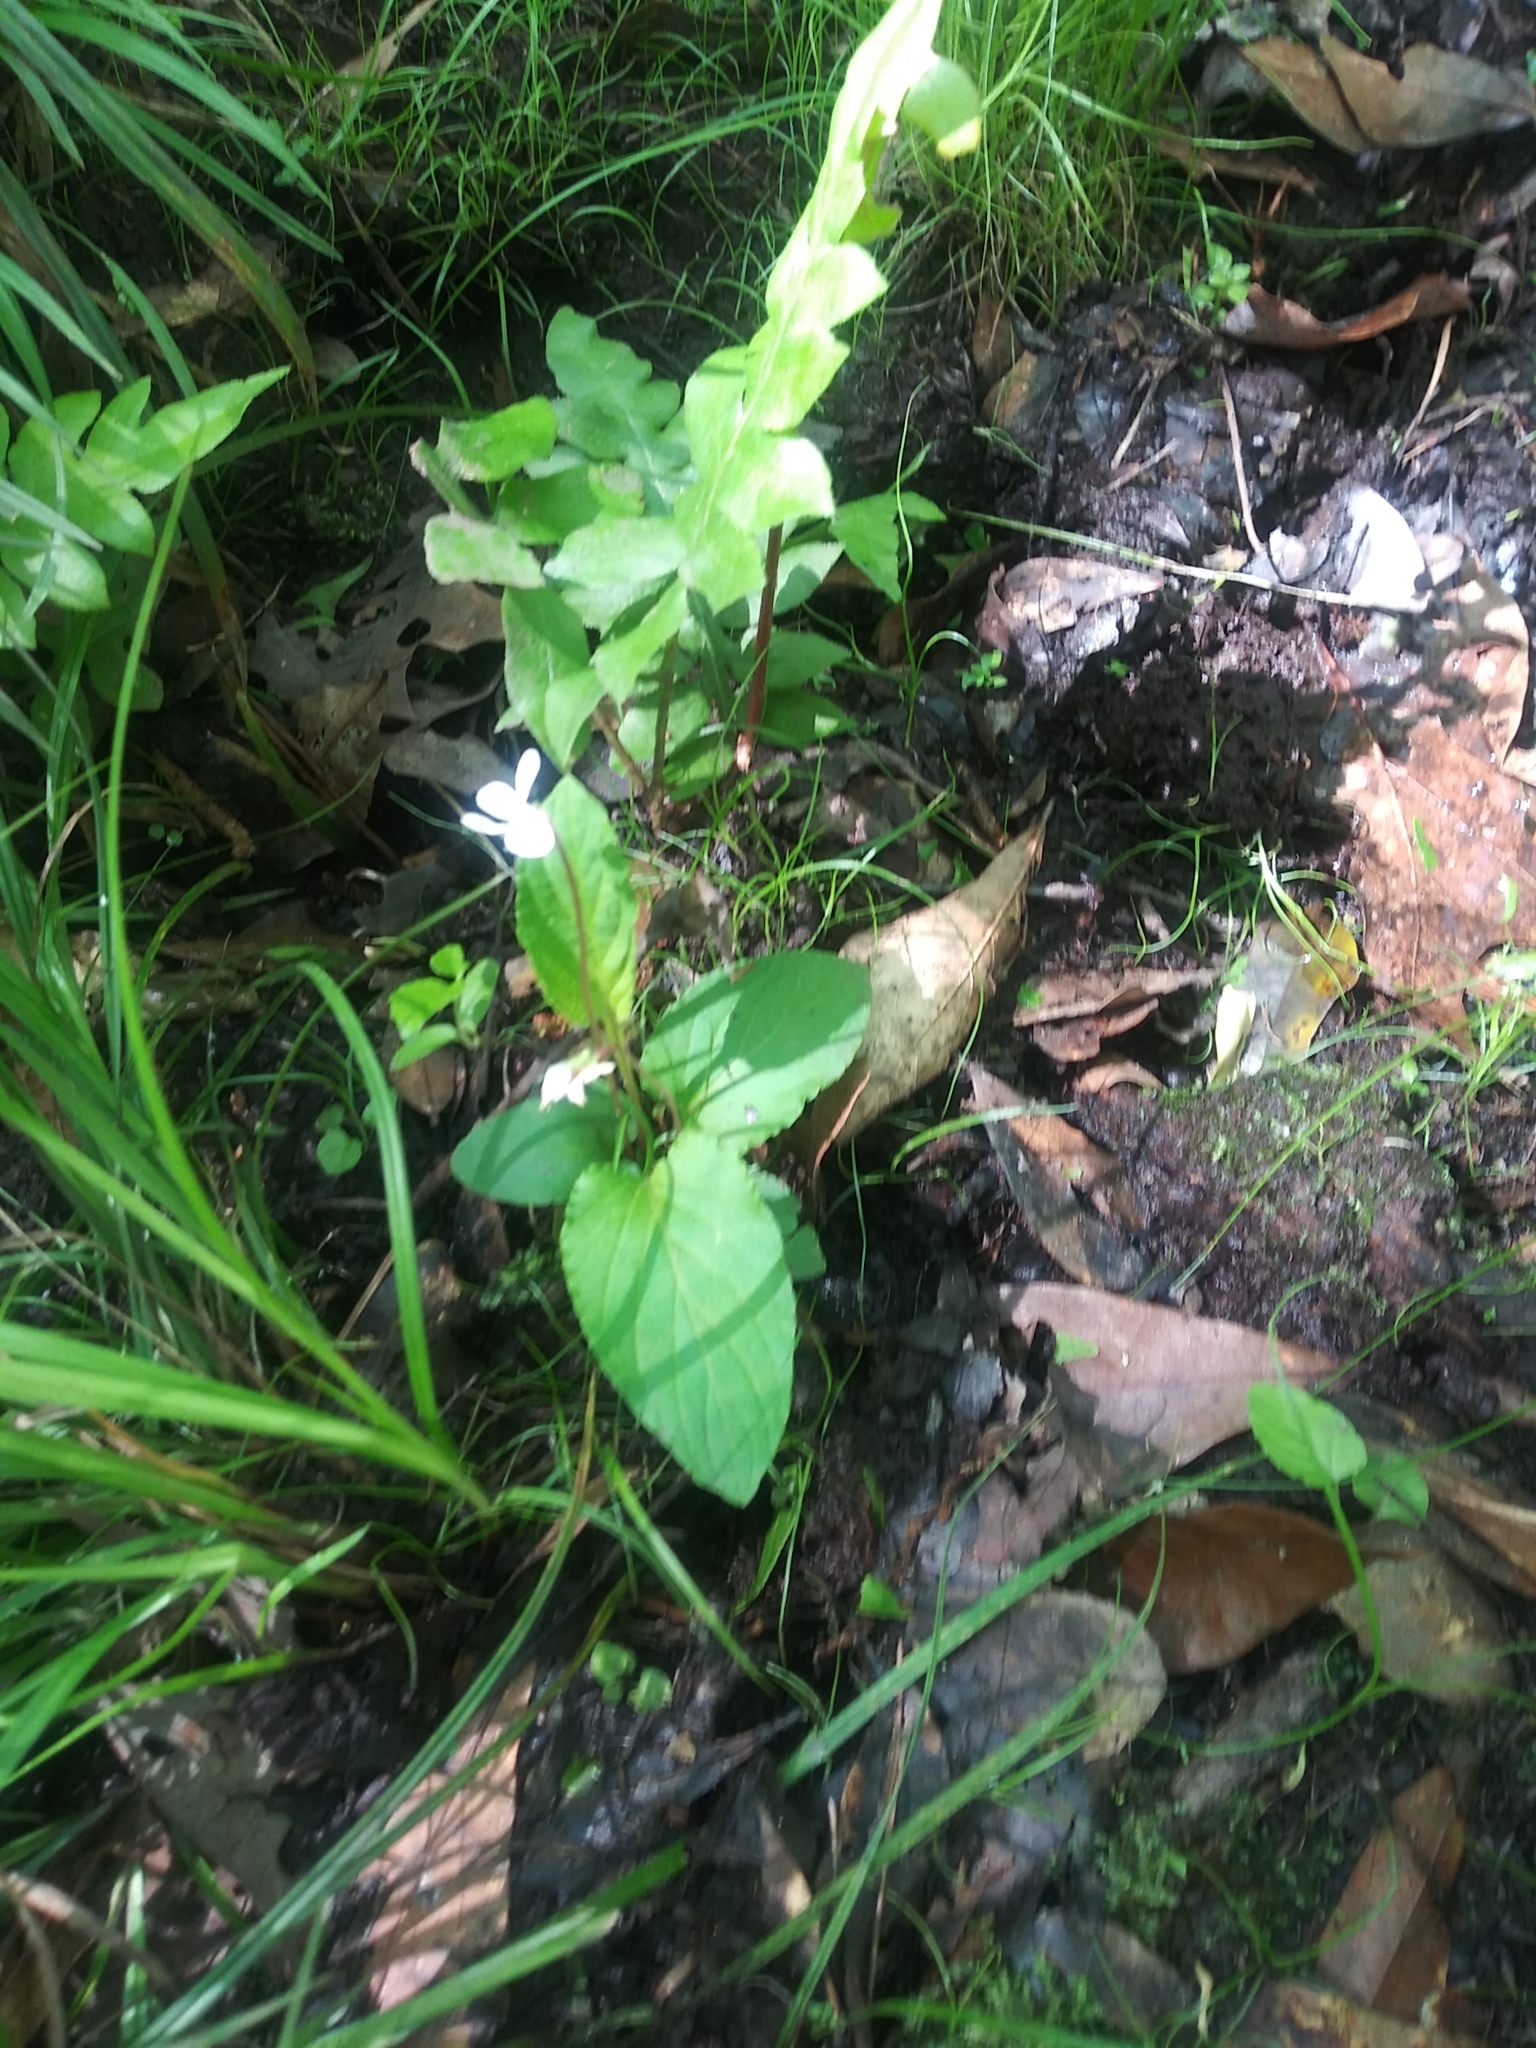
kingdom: Plantae
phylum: Tracheophyta
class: Magnoliopsida
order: Malpighiales
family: Violaceae
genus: Viola
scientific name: Viola primulifolia
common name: Primrose-leaf violet
